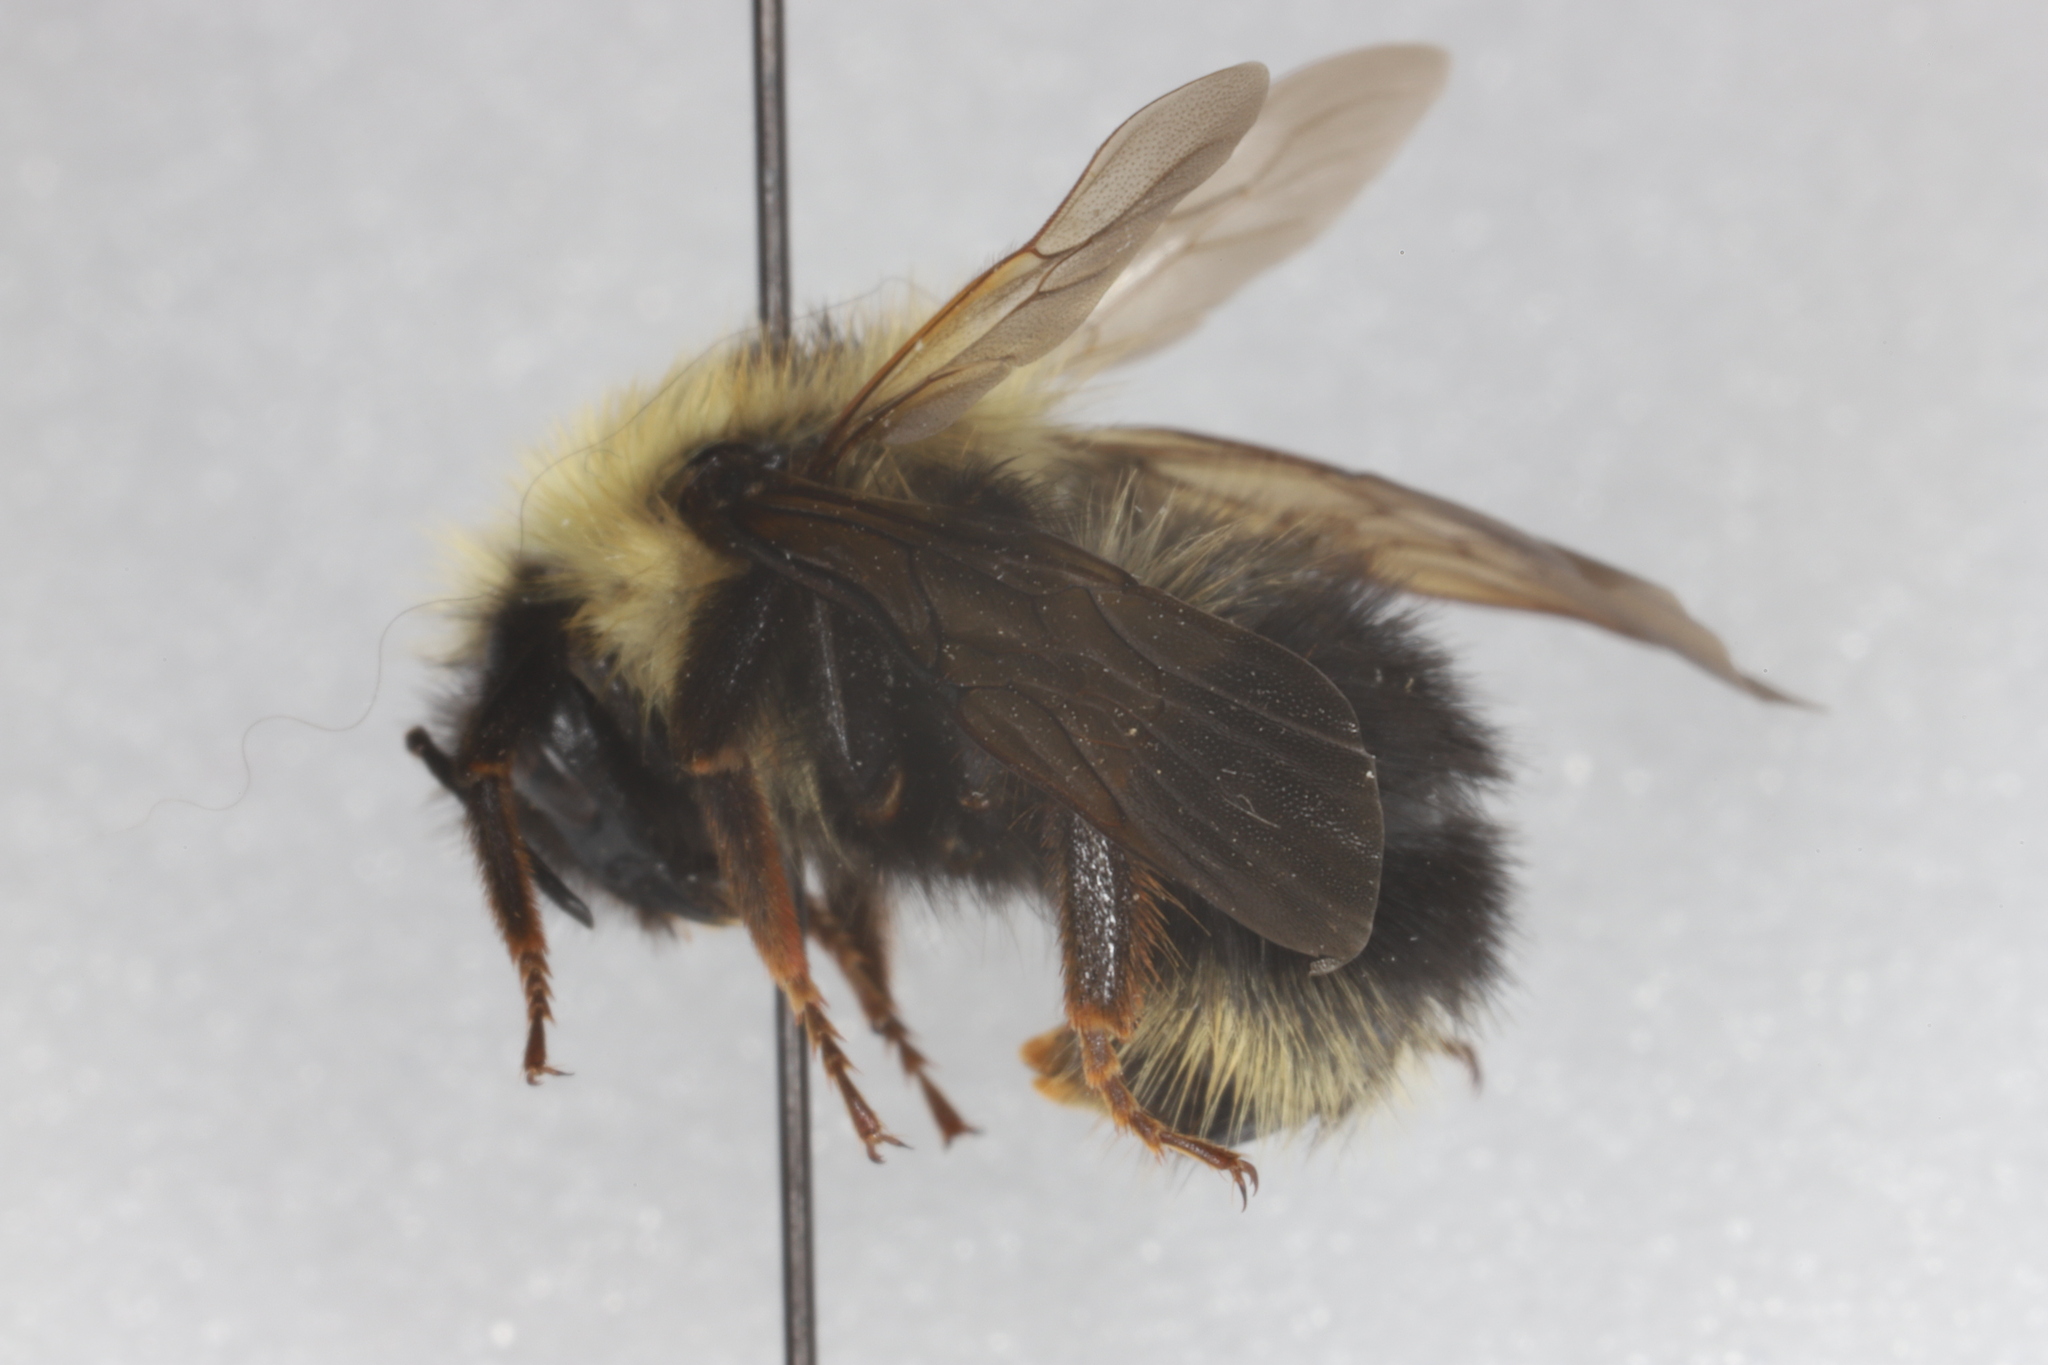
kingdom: Animalia
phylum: Arthropoda
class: Insecta
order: Hymenoptera
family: Apidae
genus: Bombus
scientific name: Bombus flavidus
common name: Fernald cuckoo bumble bee
